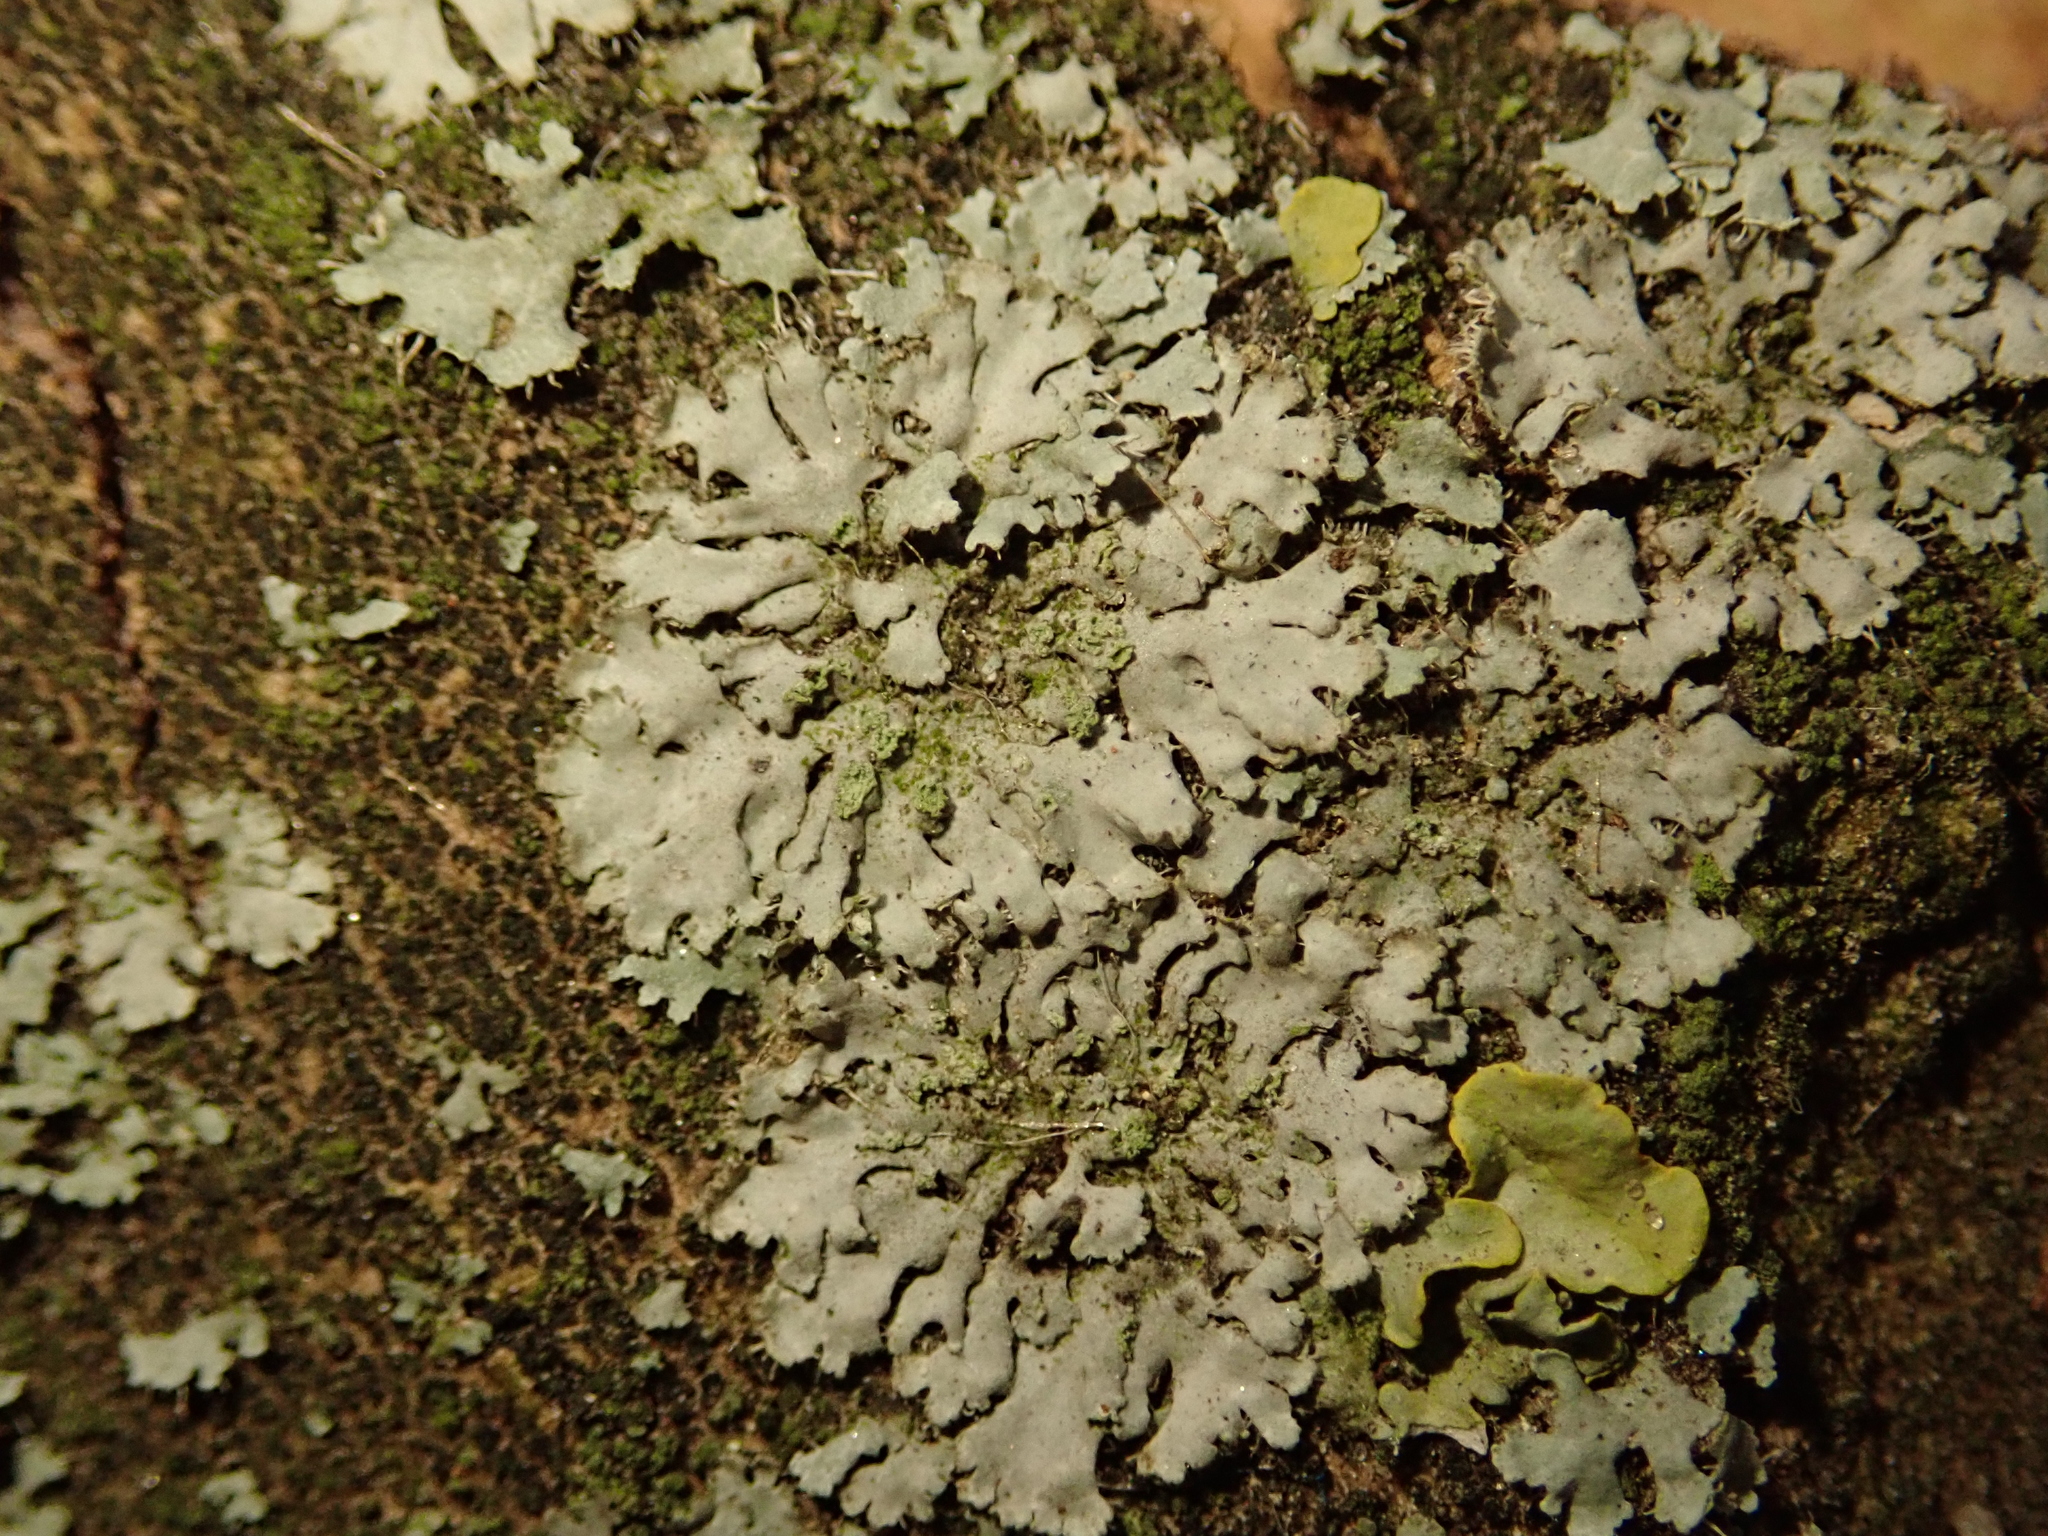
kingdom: Fungi
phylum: Ascomycota
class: Lecanoromycetes
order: Caliciales
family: Physciaceae
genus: Phaeophyscia
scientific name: Phaeophyscia orbicularis
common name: Mealy shadow lichen
